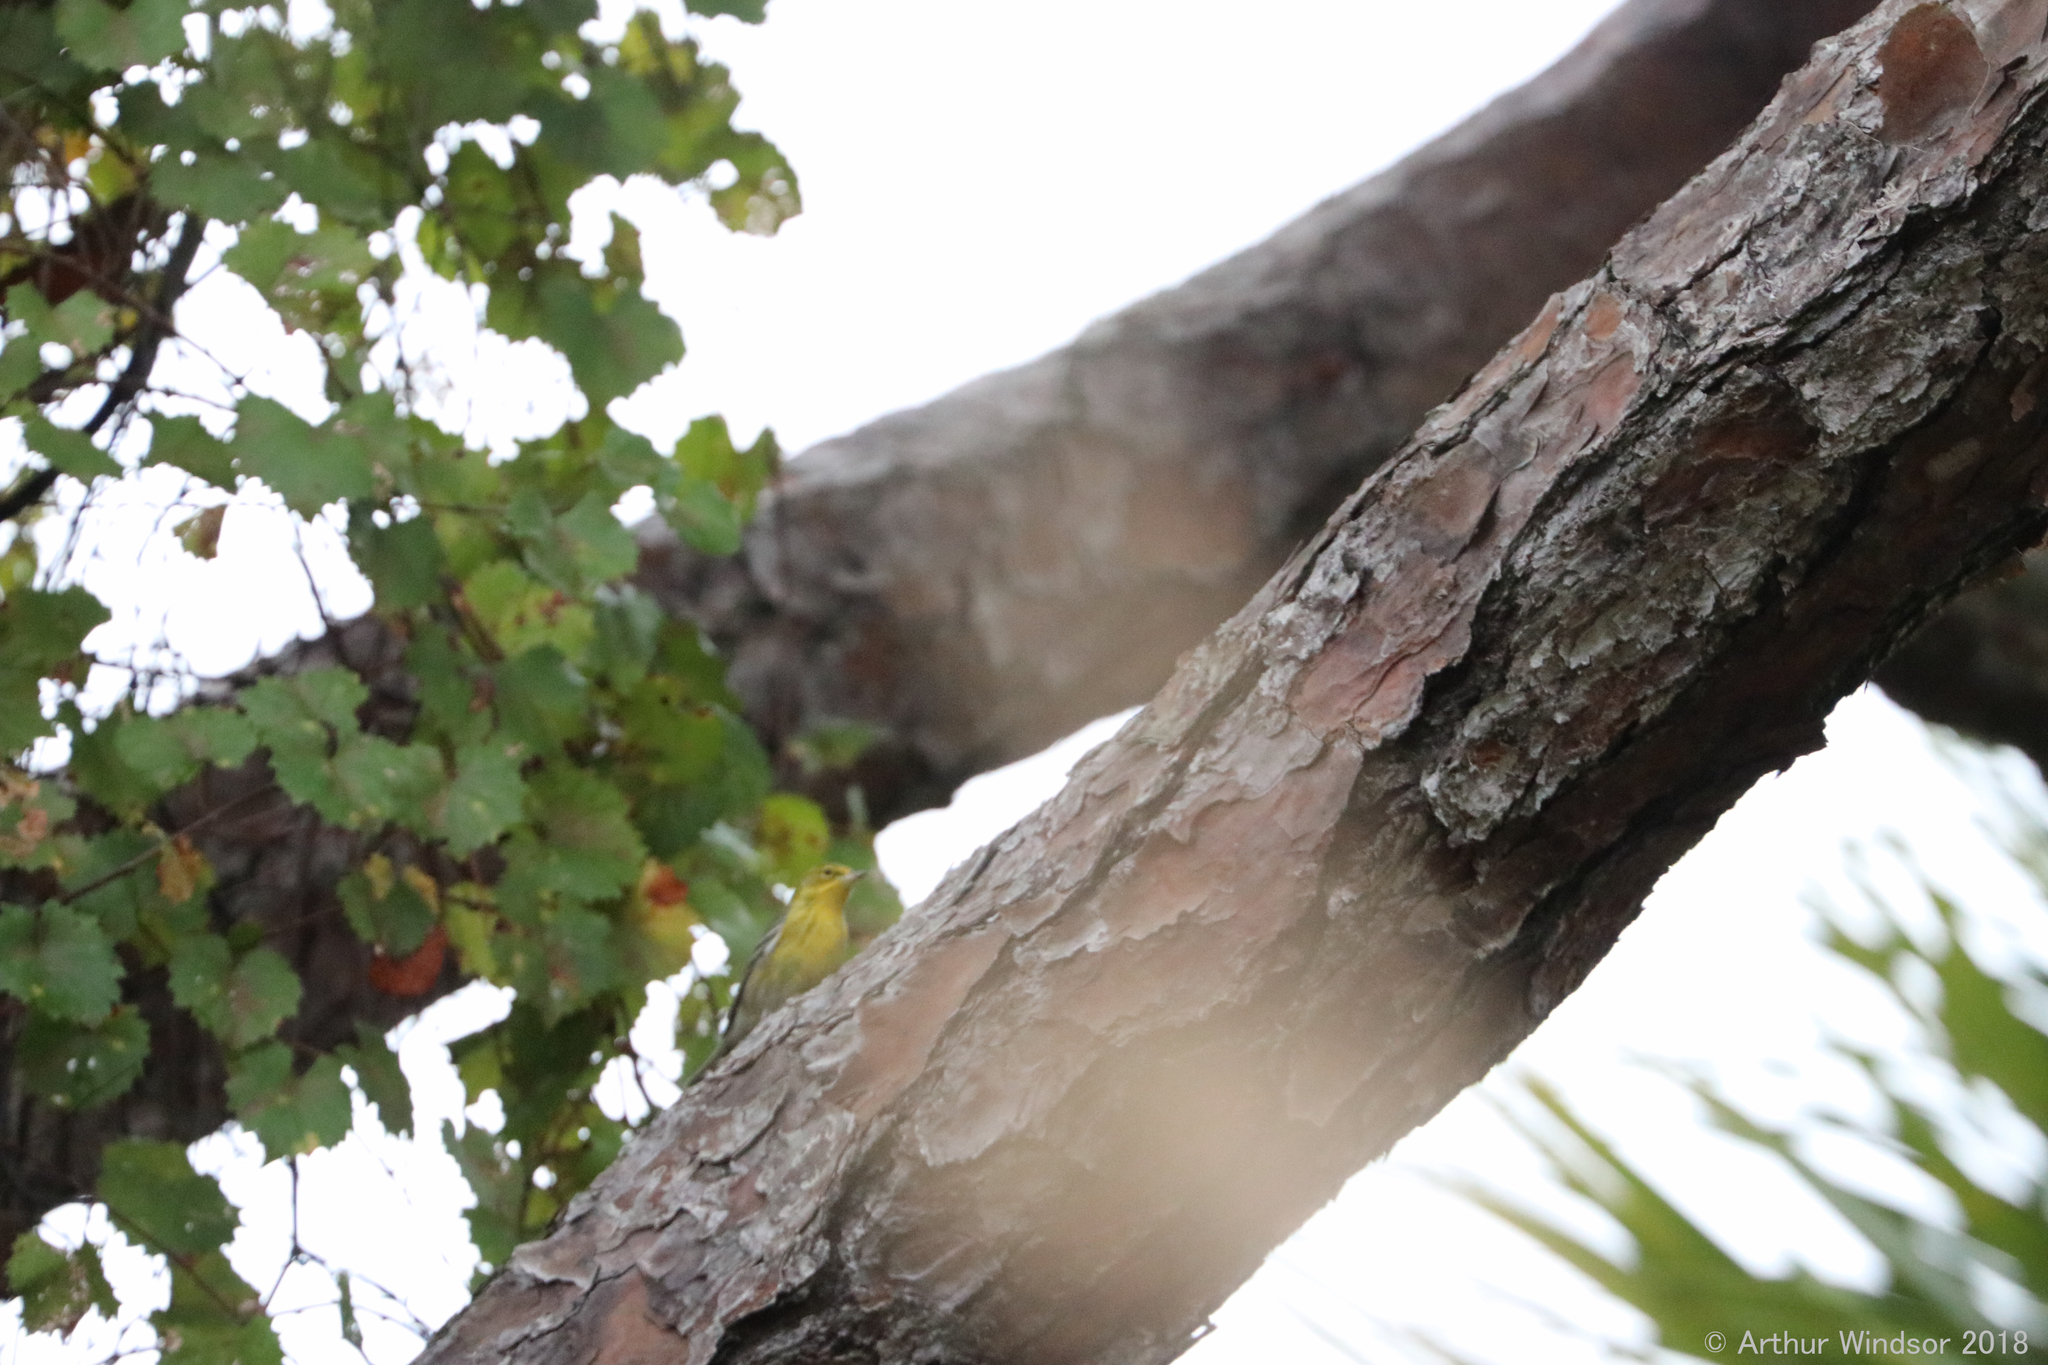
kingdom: Animalia
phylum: Chordata
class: Aves
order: Passeriformes
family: Parulidae
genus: Setophaga
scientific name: Setophaga pinus
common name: Pine warbler
